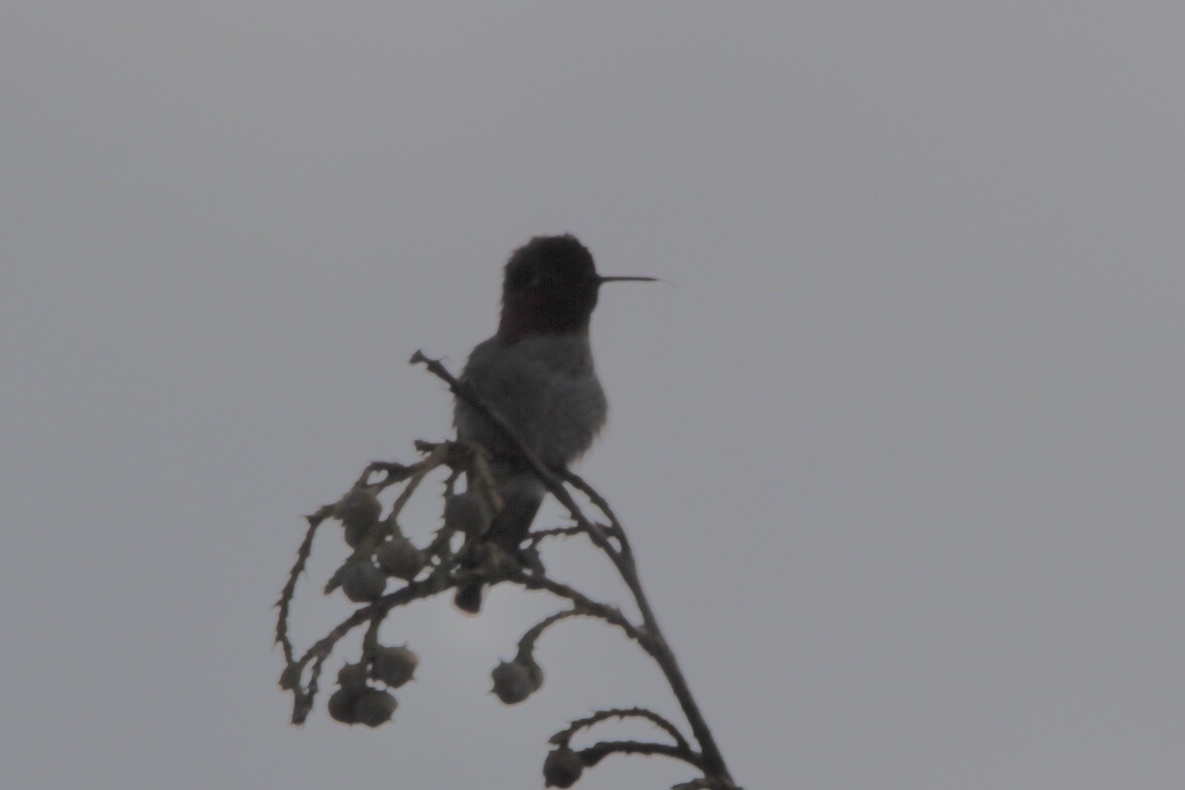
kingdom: Animalia
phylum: Chordata
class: Aves
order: Apodiformes
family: Trochilidae
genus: Calypte
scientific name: Calypte anna
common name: Anna's hummingbird
